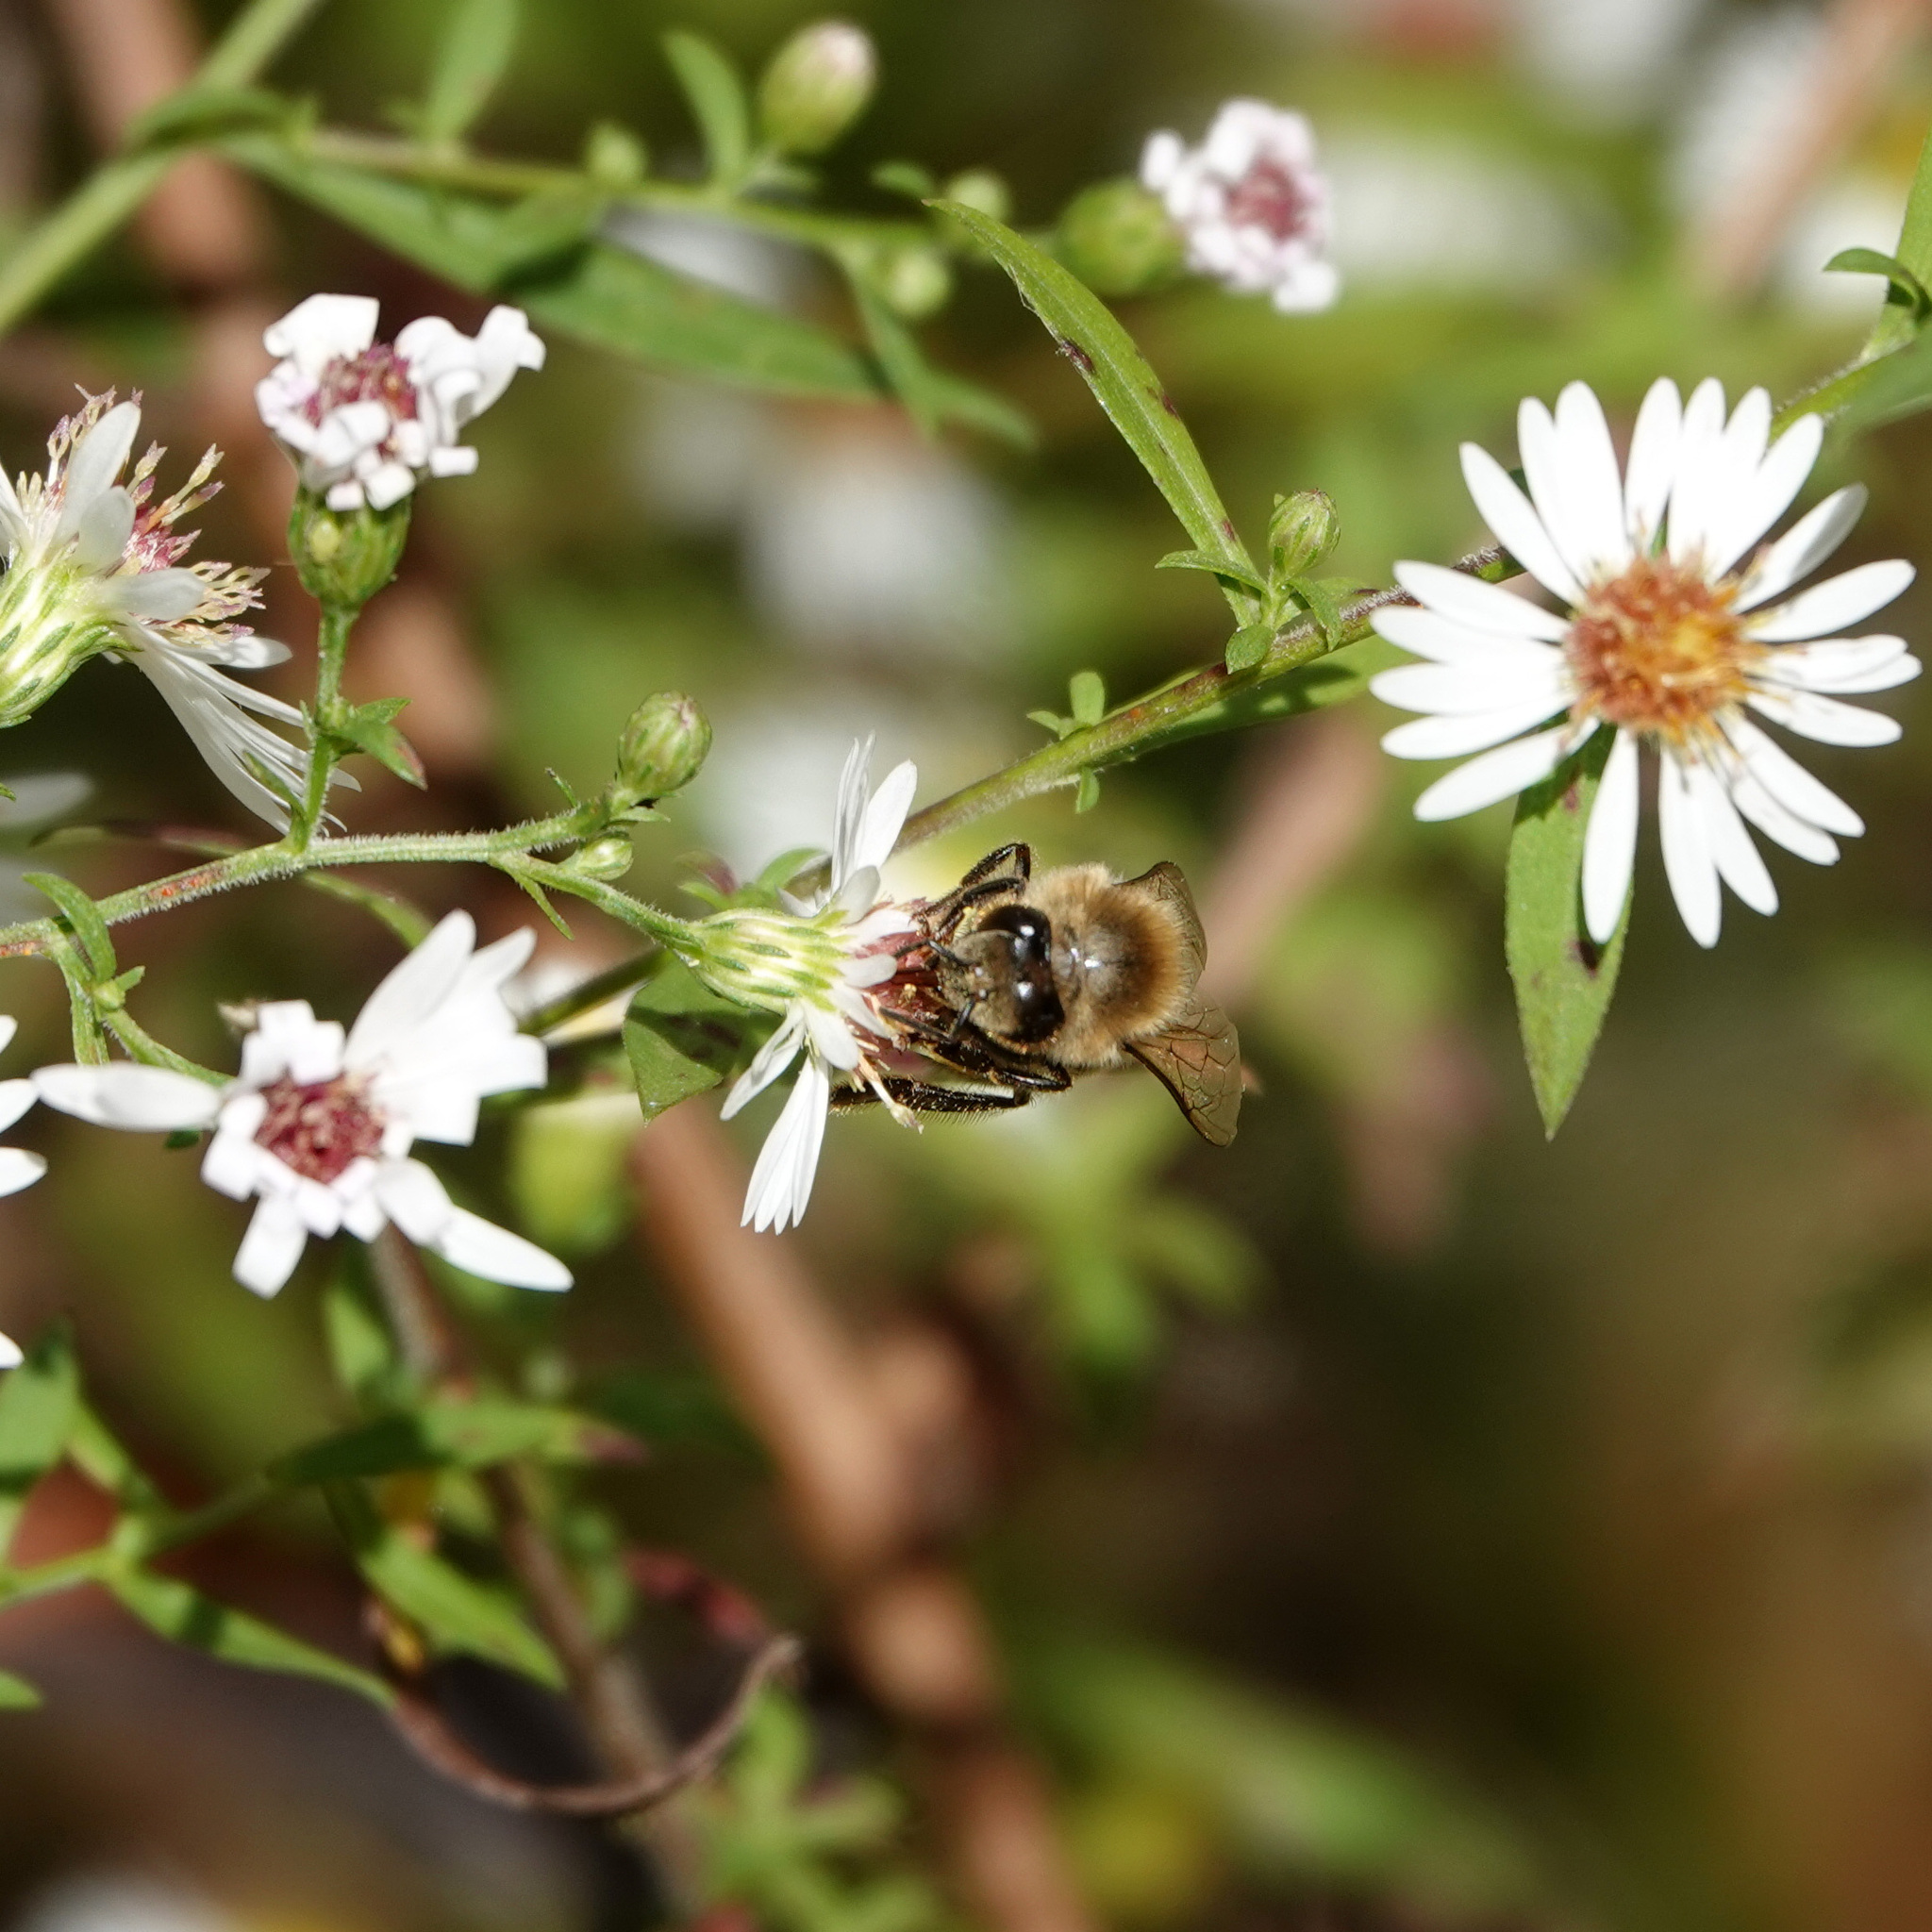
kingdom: Animalia
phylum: Arthropoda
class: Insecta
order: Hymenoptera
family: Apidae
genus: Apis
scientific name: Apis mellifera
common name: Honey bee
